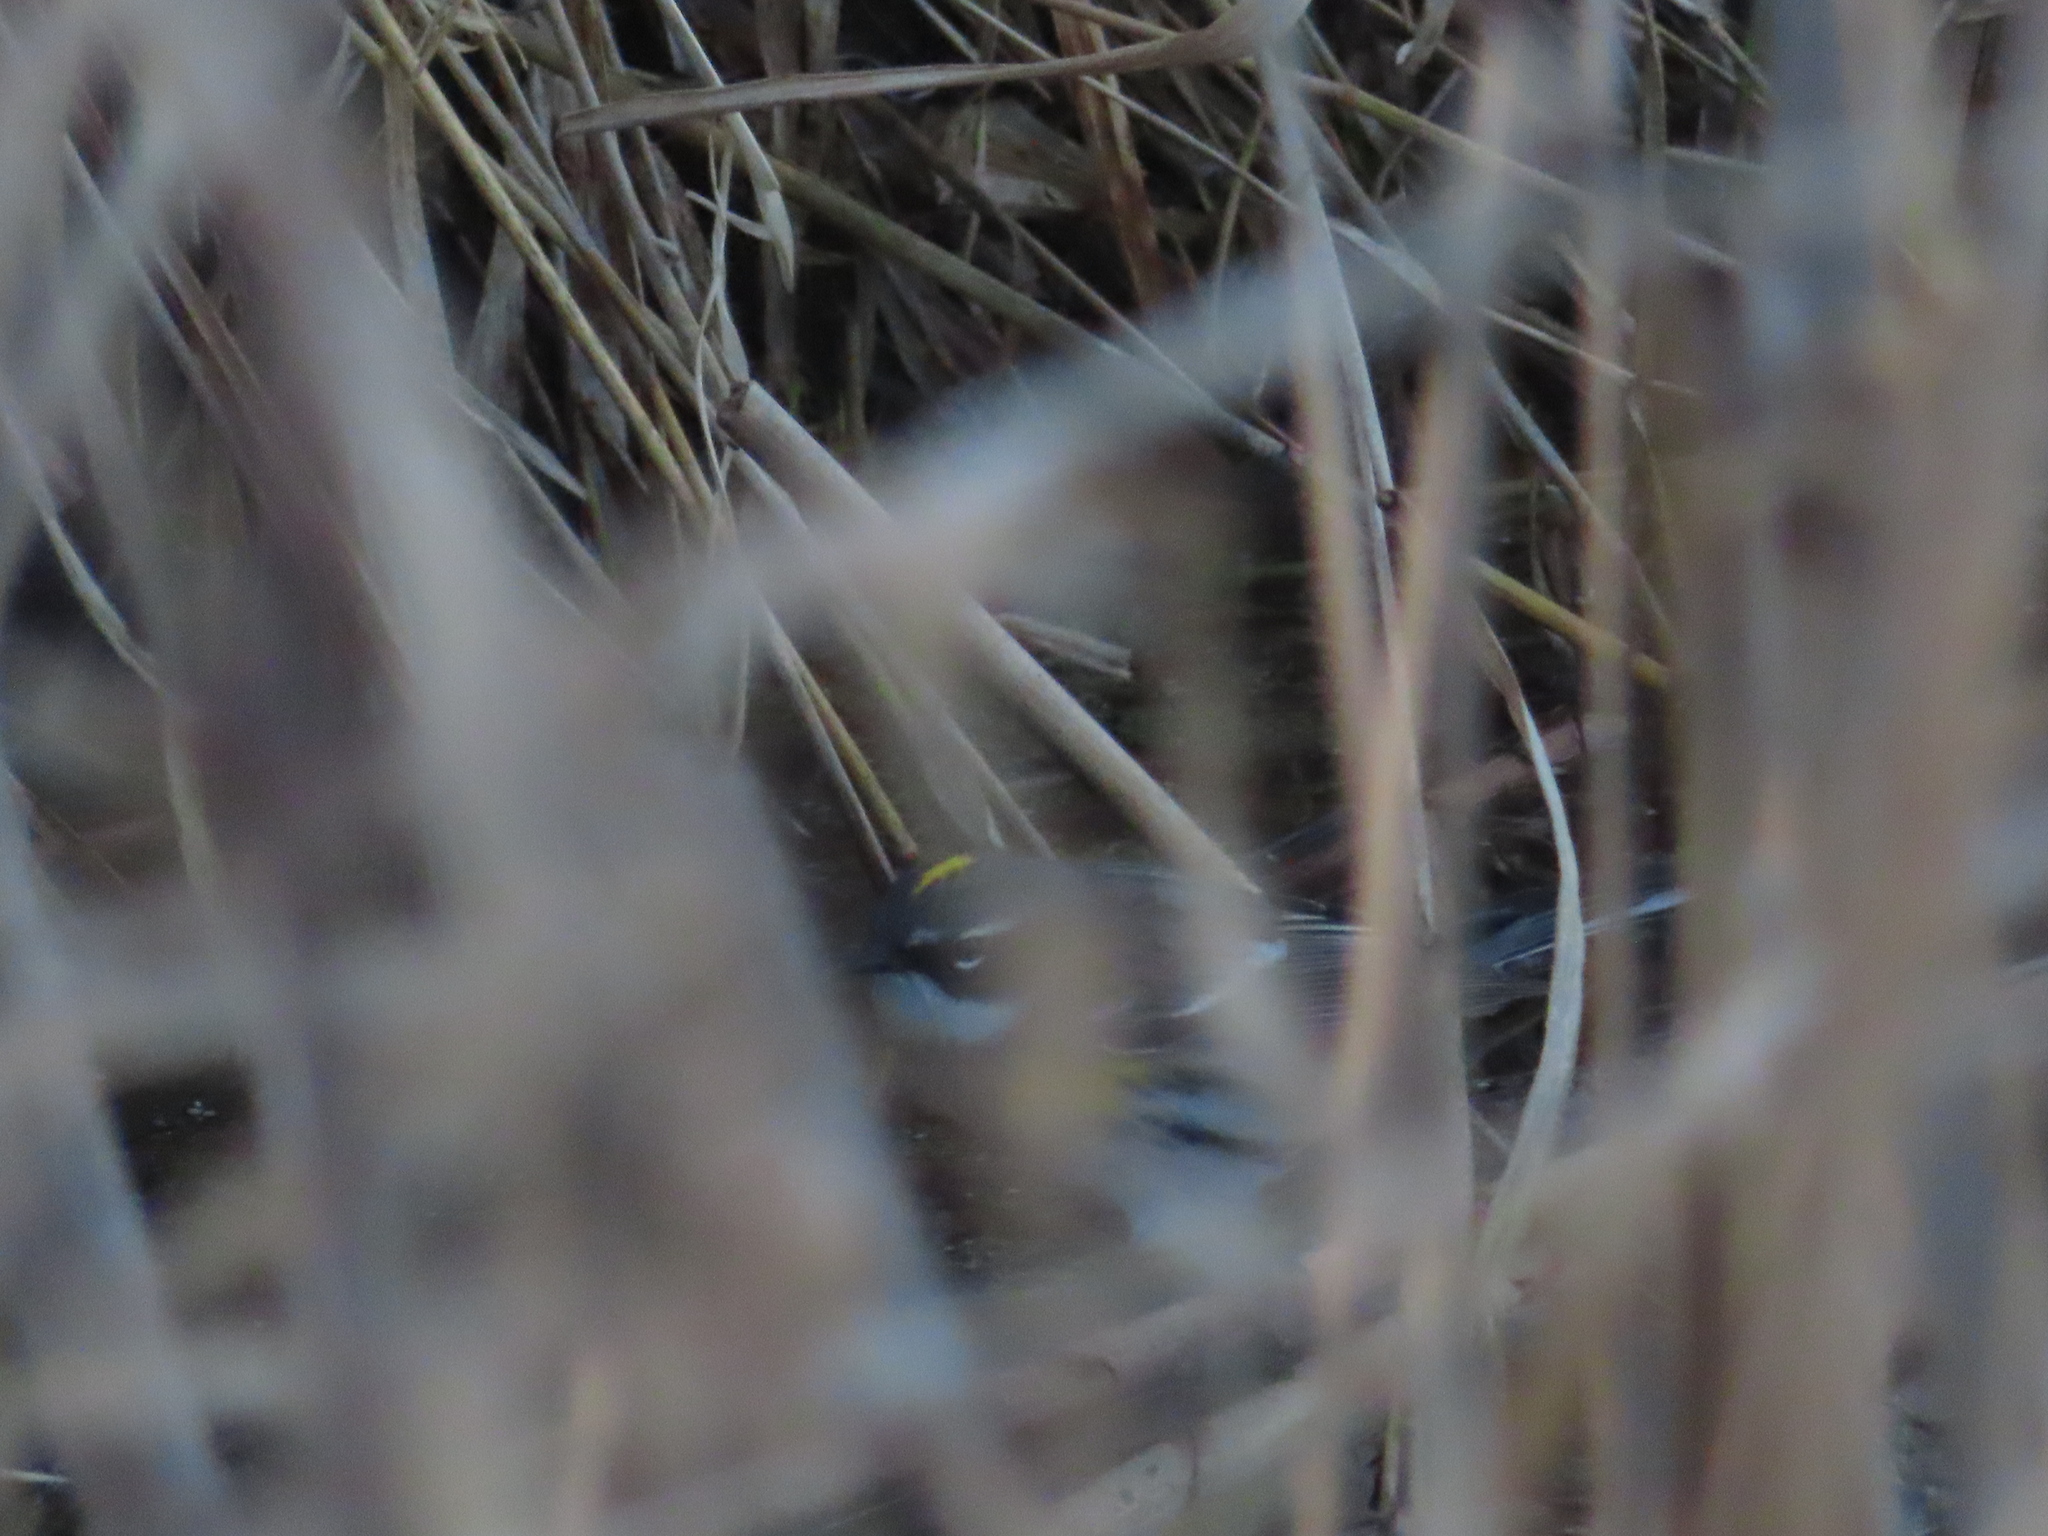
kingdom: Animalia
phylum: Chordata
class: Aves
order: Passeriformes
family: Parulidae
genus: Setophaga
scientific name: Setophaga coronata
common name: Myrtle warbler
